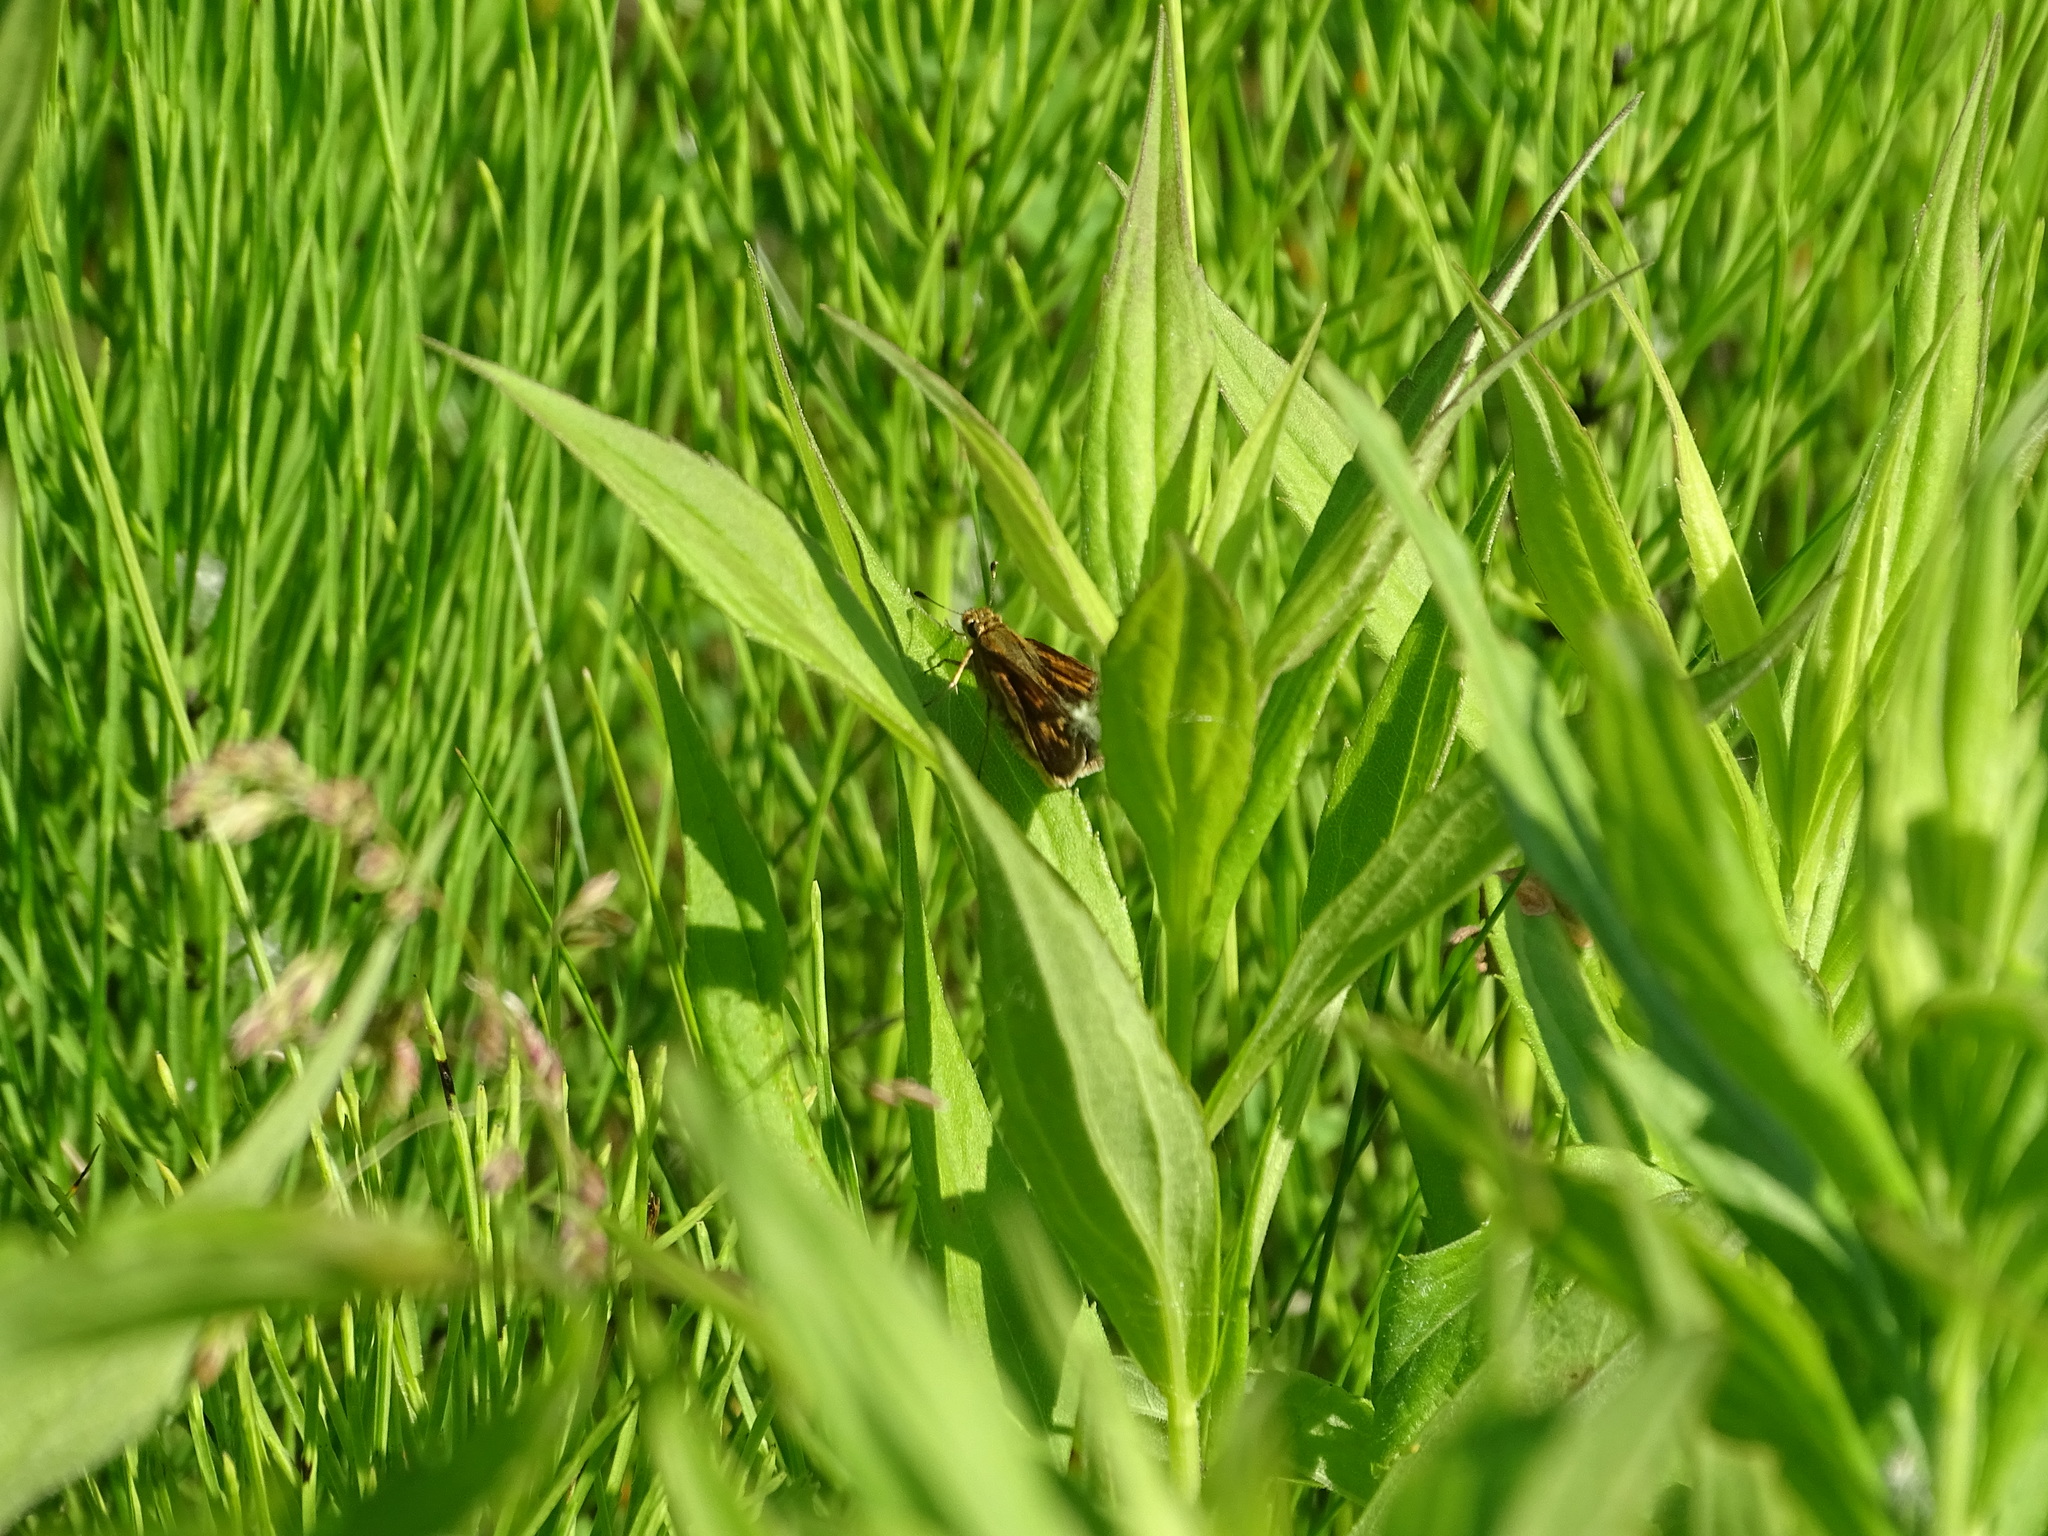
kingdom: Animalia
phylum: Arthropoda
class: Insecta
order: Lepidoptera
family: Hesperiidae
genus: Polites
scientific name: Polites coras
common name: Peck's skipper
